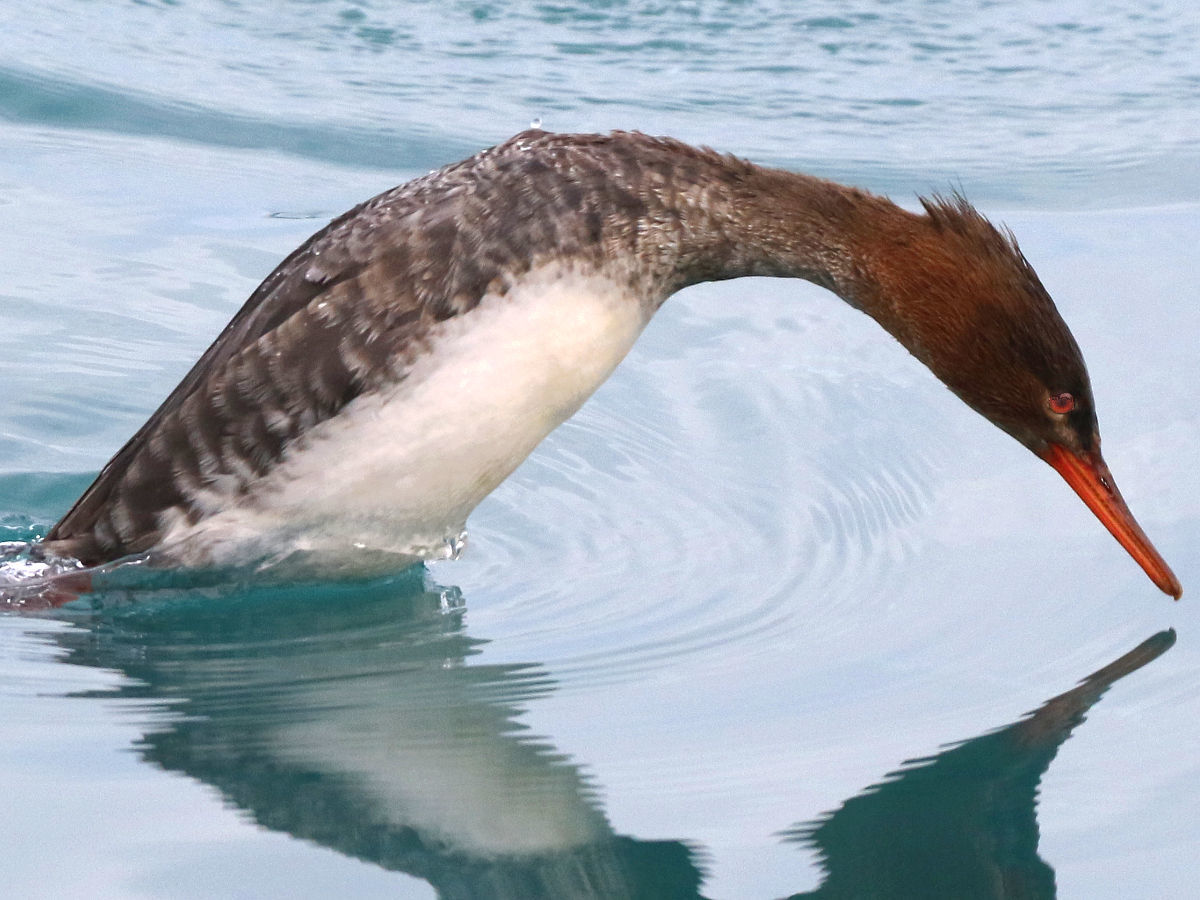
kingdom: Animalia
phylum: Chordata
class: Aves
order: Anseriformes
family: Anatidae
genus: Mergus
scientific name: Mergus serrator
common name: Red-breasted merganser
